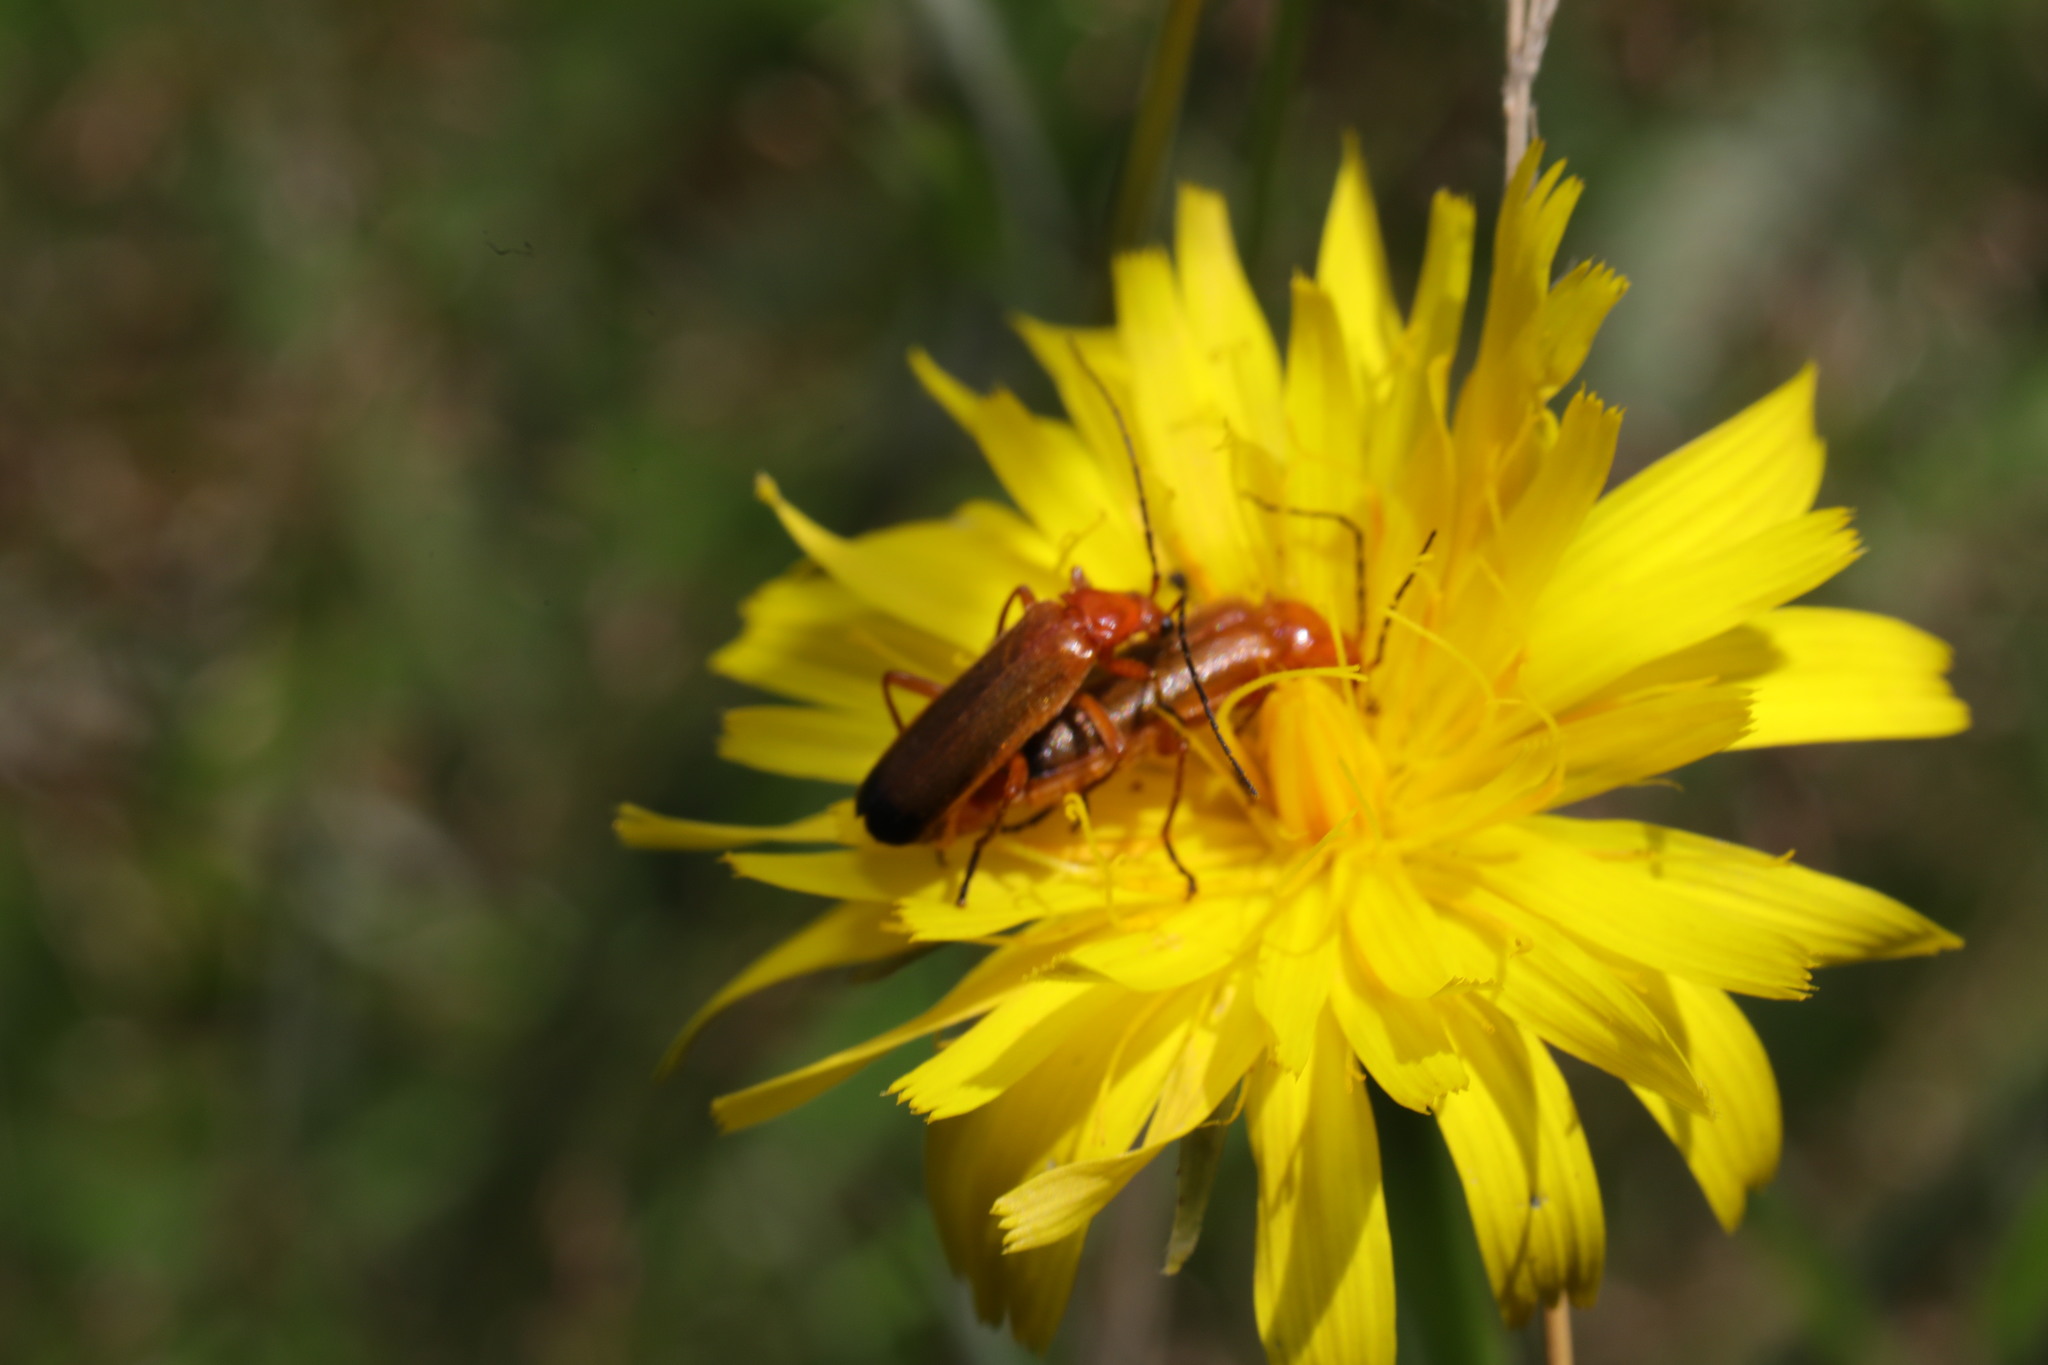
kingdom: Animalia
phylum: Arthropoda
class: Insecta
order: Coleoptera
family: Cantharidae
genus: Rhagonycha
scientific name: Rhagonycha fulva
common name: Common red soldier beetle
